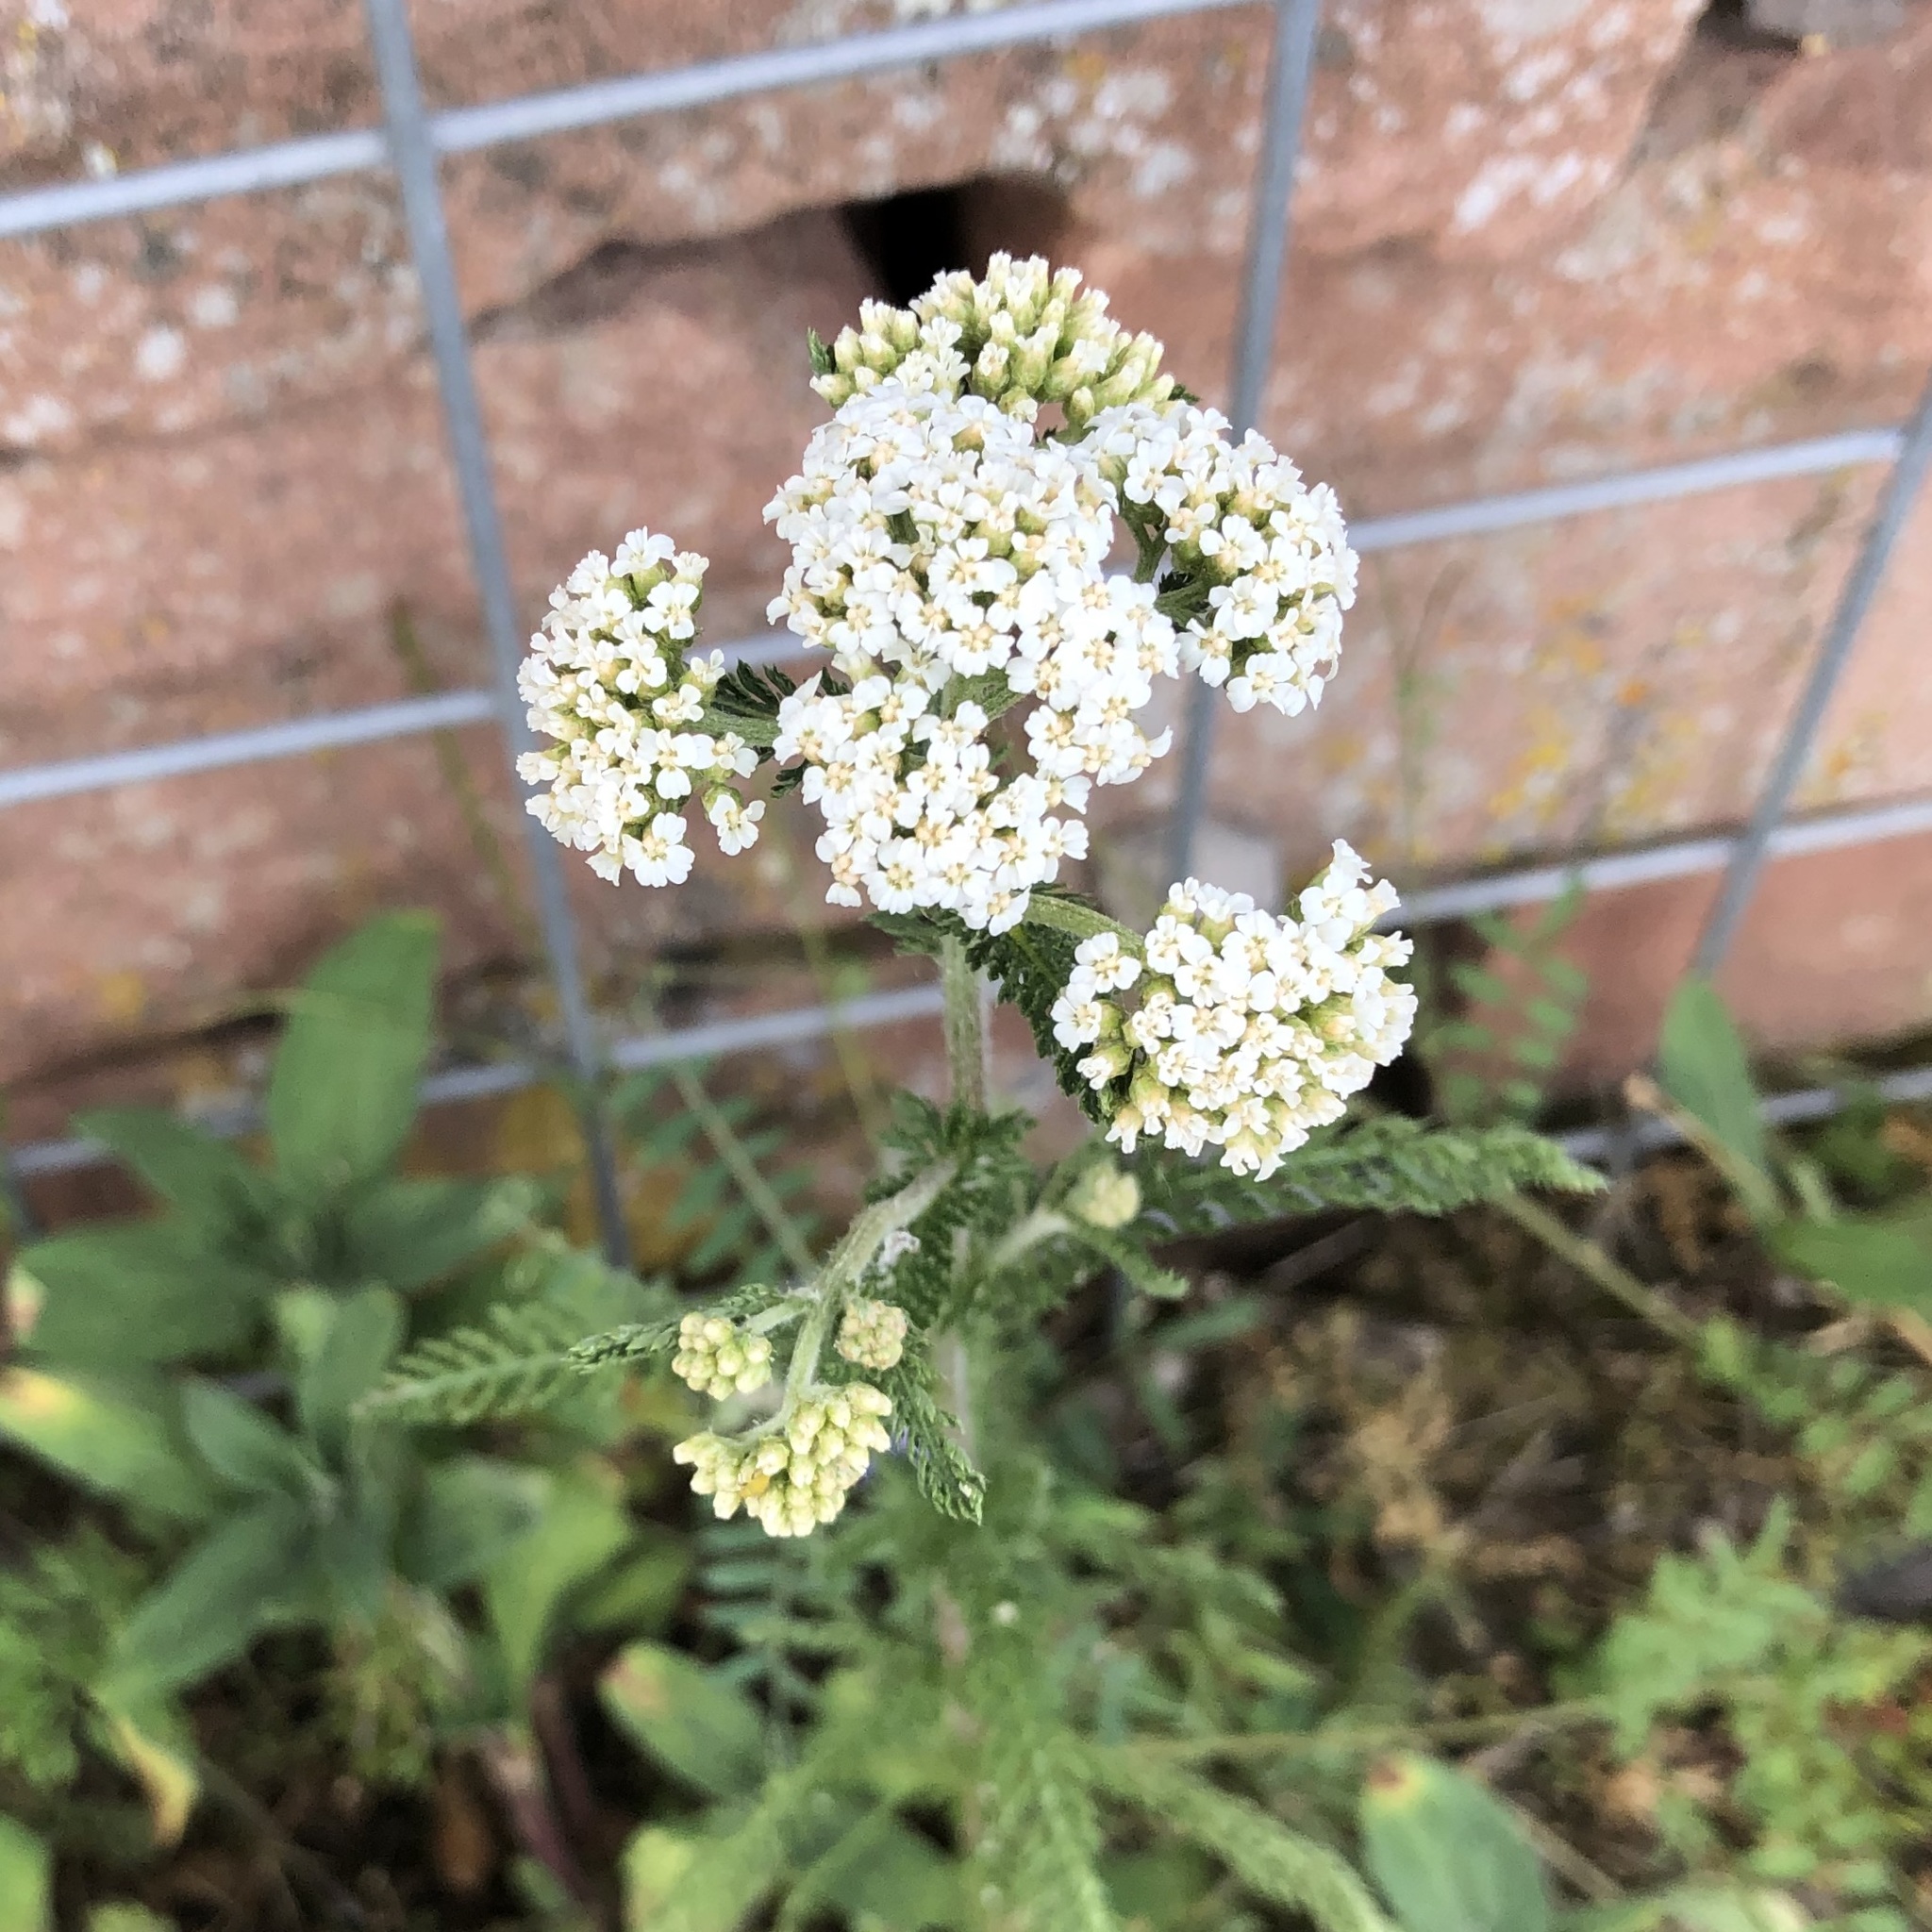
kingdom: Plantae
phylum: Tracheophyta
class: Magnoliopsida
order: Asterales
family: Asteraceae
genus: Achillea
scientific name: Achillea millefolium
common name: Yarrow
